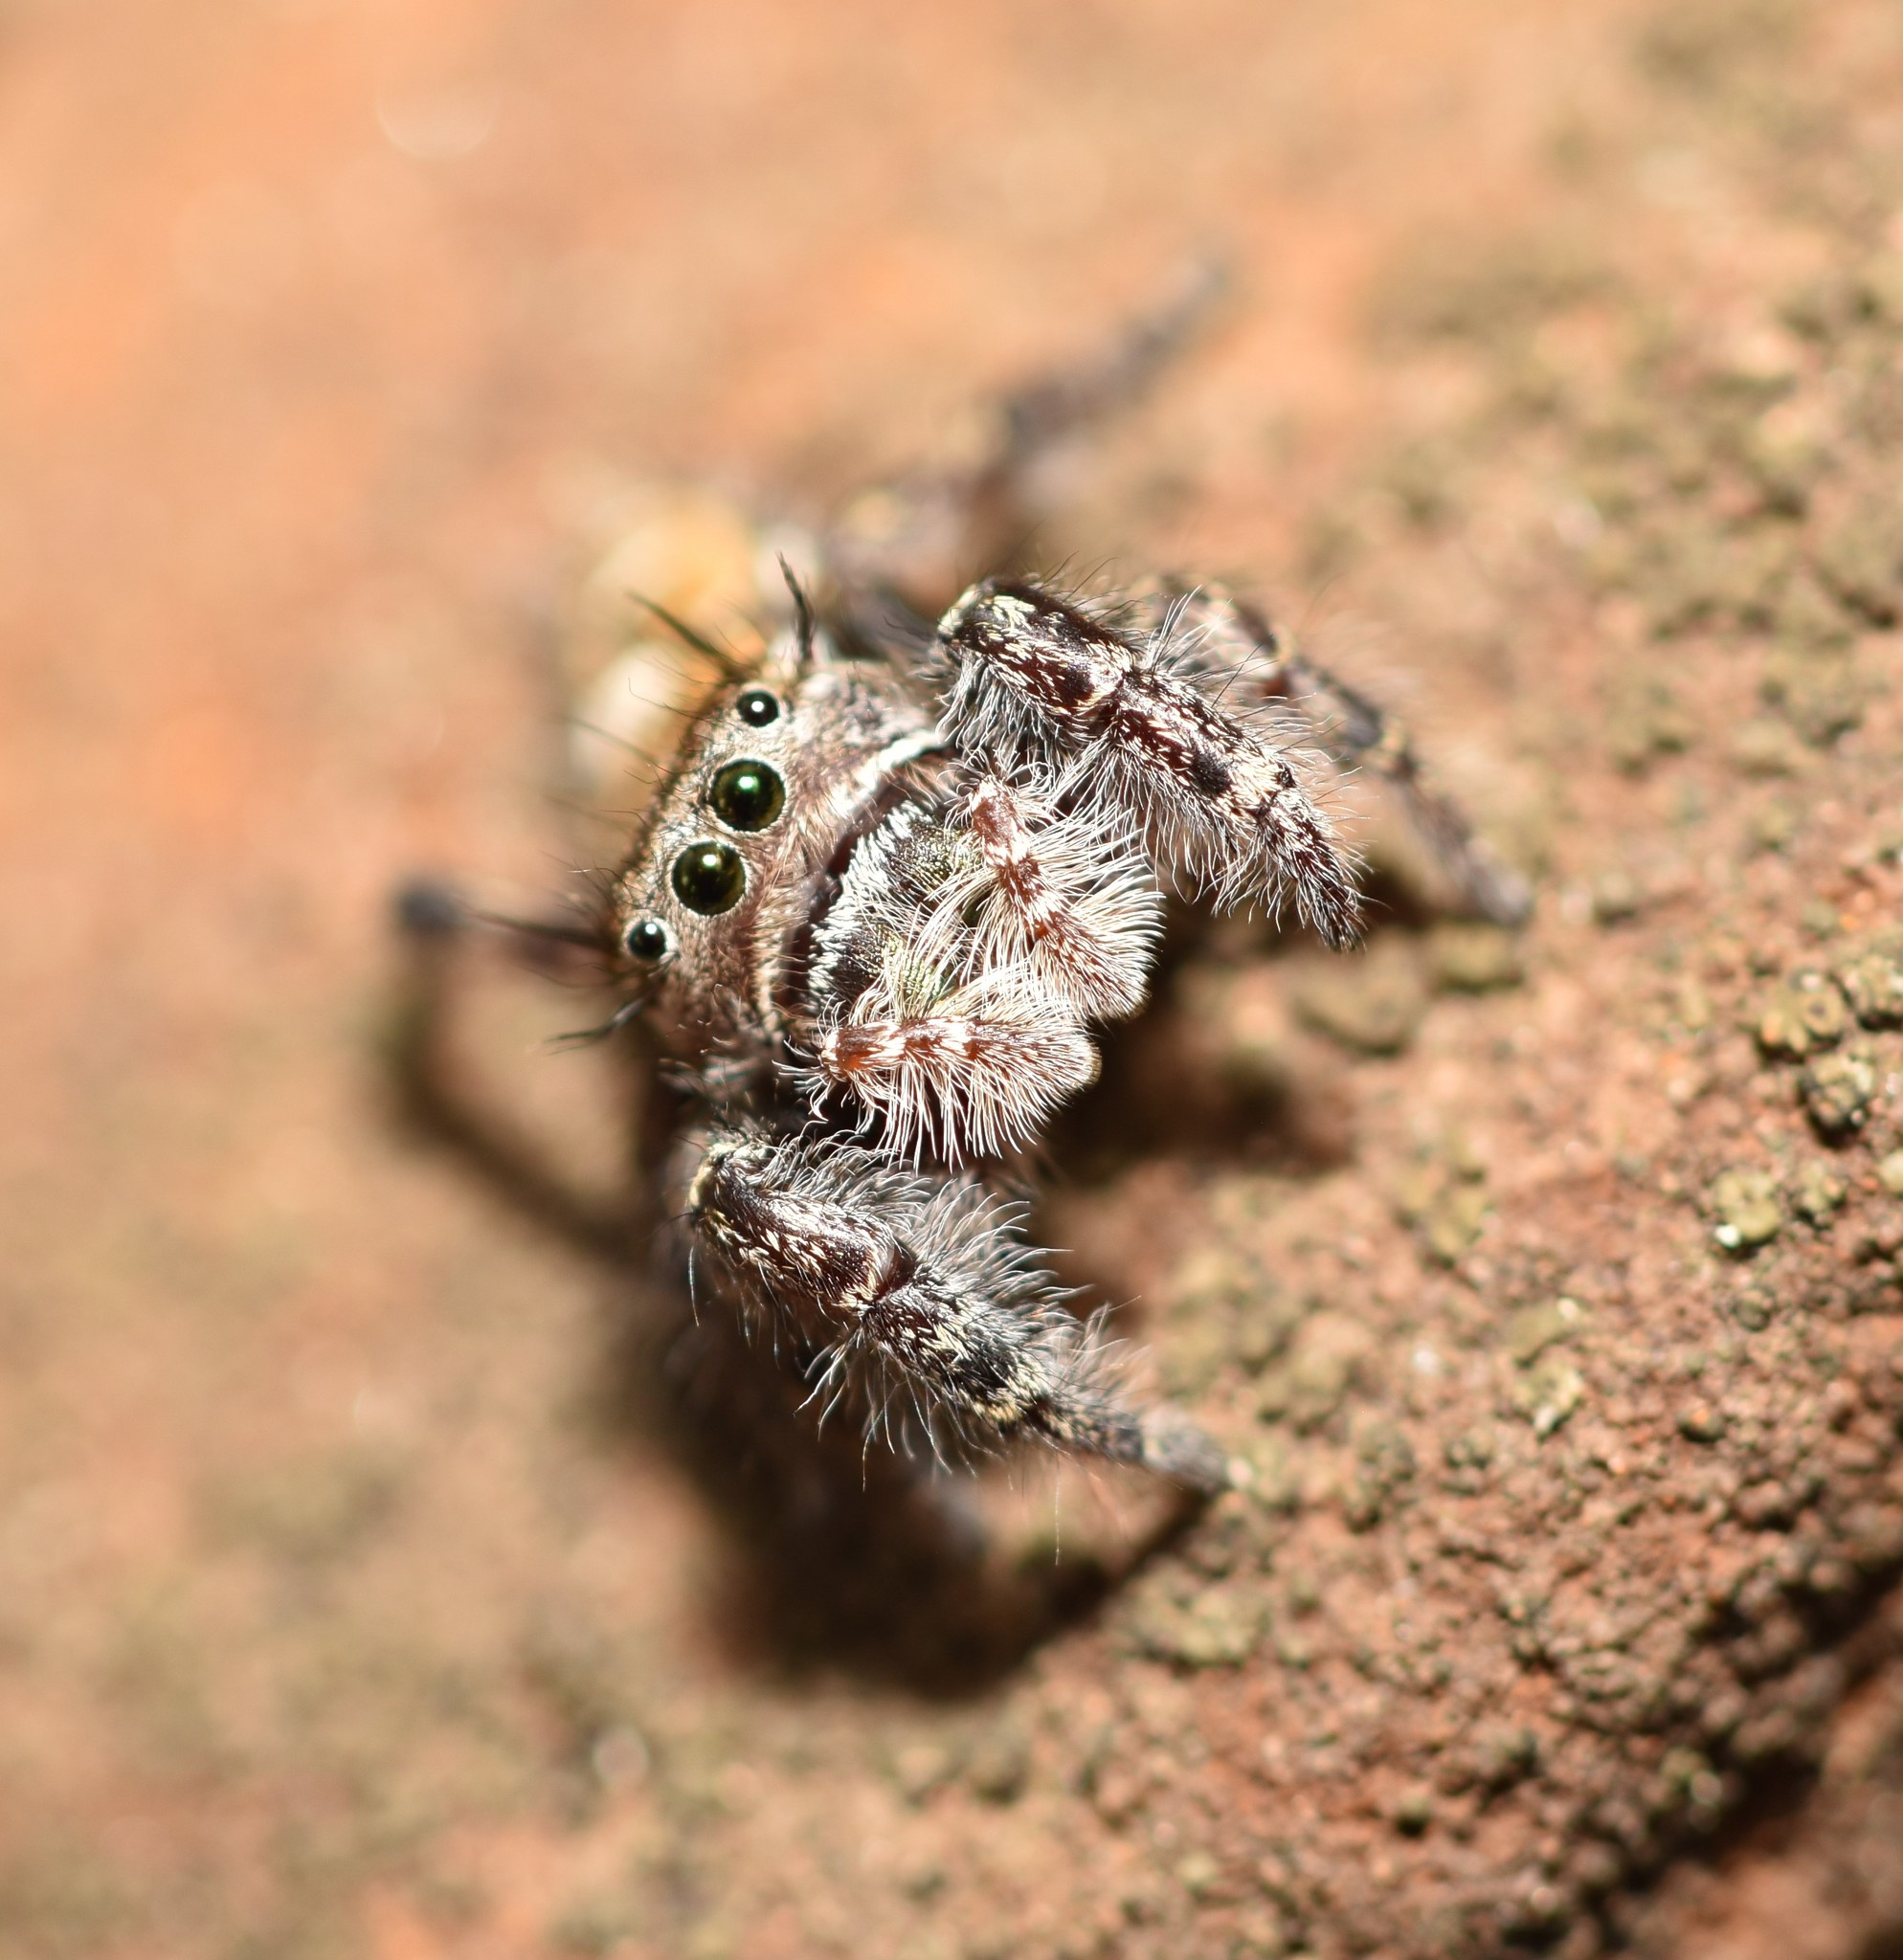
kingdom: Animalia
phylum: Arthropoda
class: Arachnida
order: Araneae
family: Salticidae
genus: Phidippus
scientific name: Phidippus carolinensis
